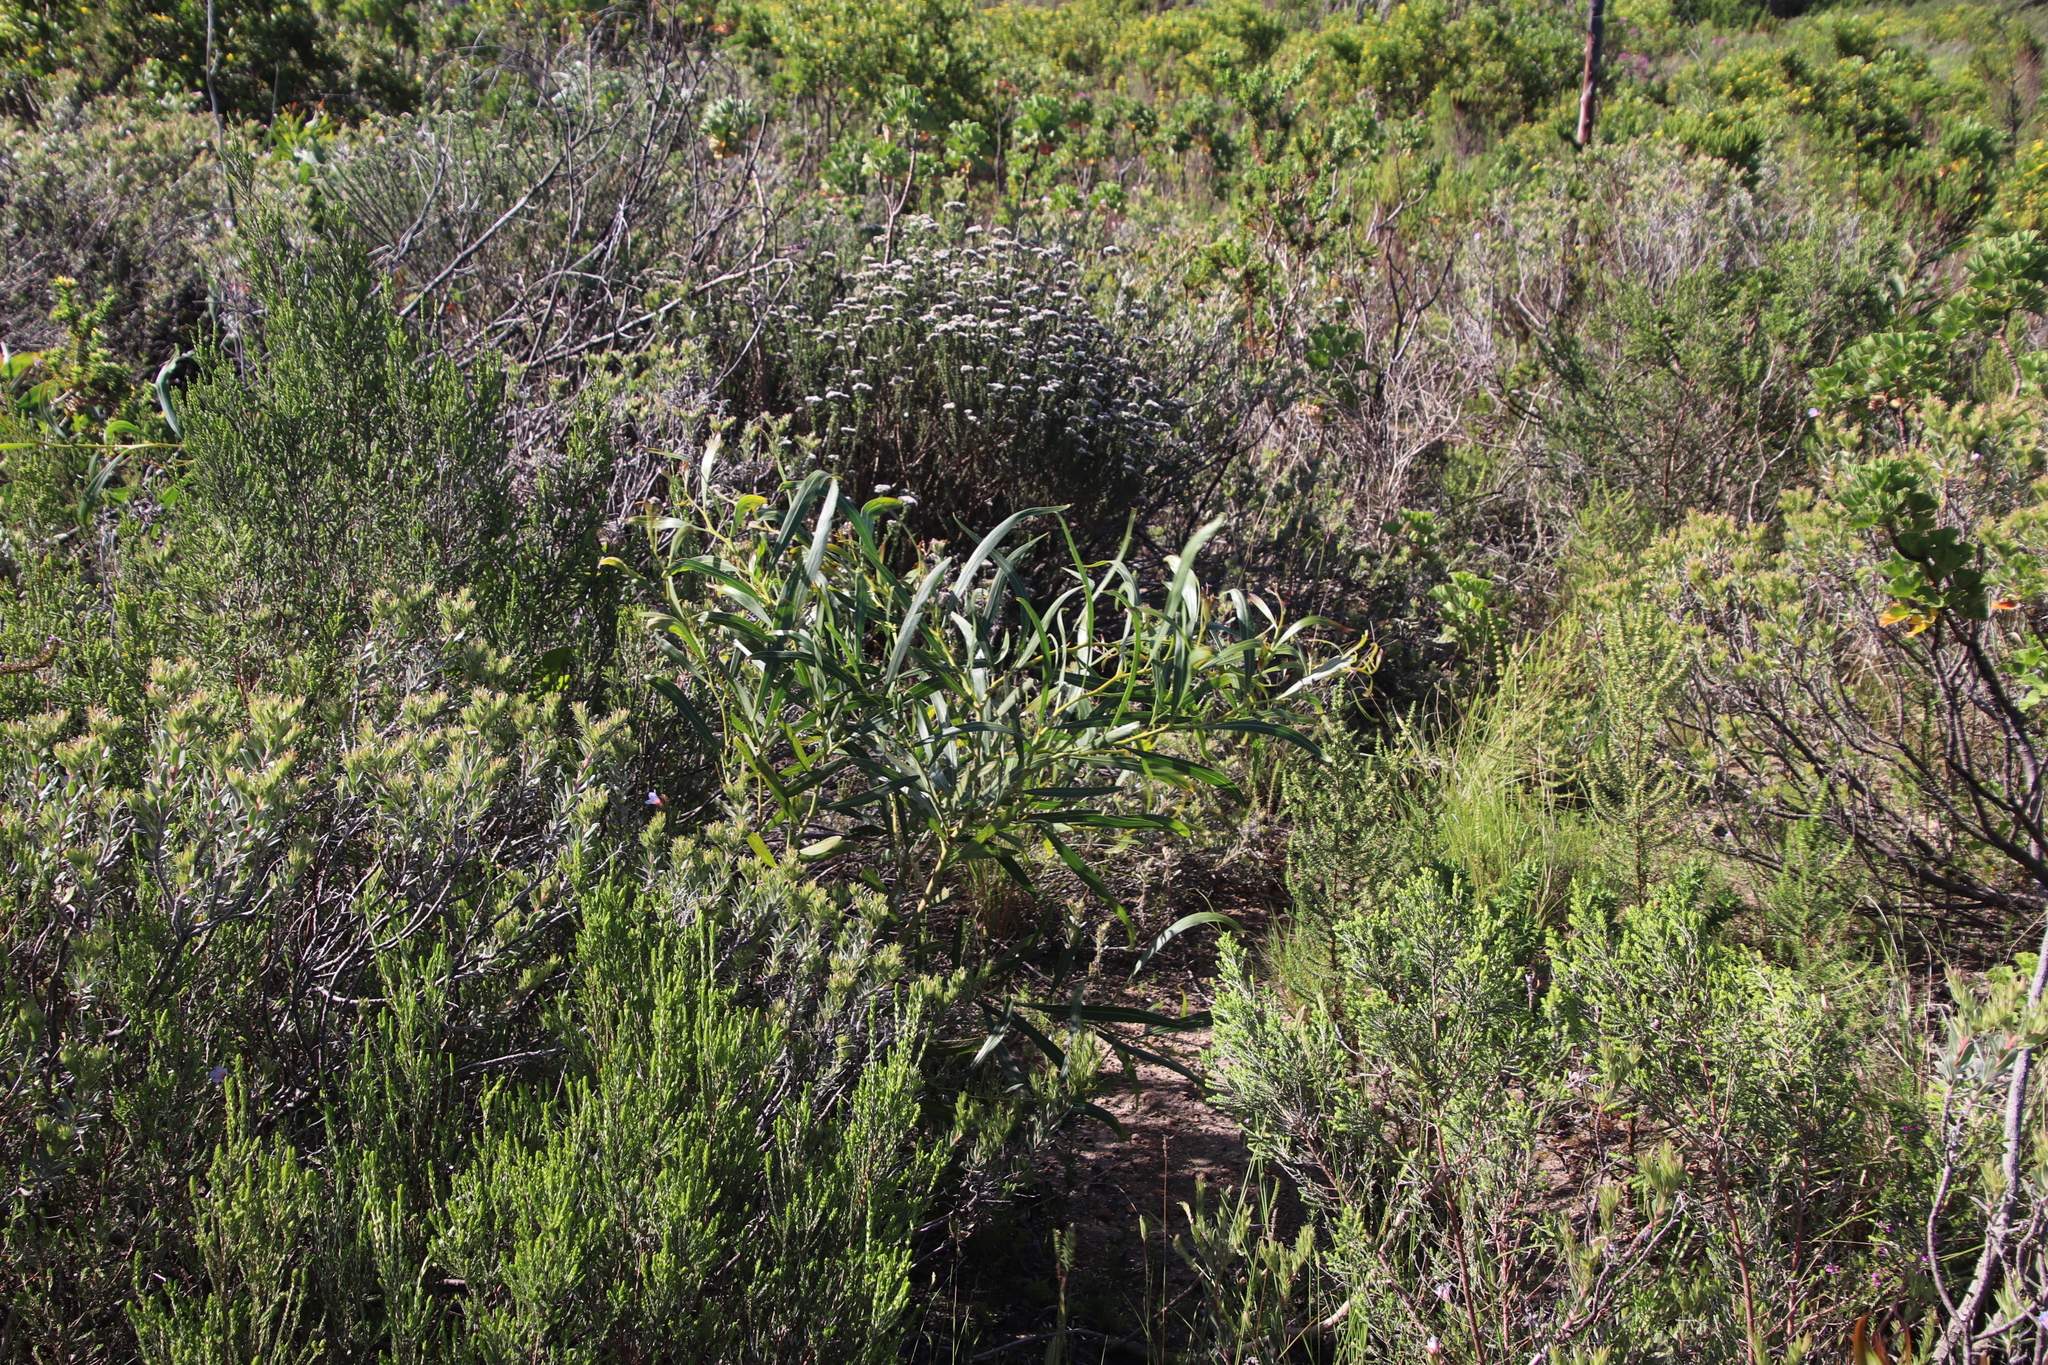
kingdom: Plantae
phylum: Tracheophyta
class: Magnoliopsida
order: Fabales
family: Fabaceae
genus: Acacia
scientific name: Acacia saligna
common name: Orange wattle
